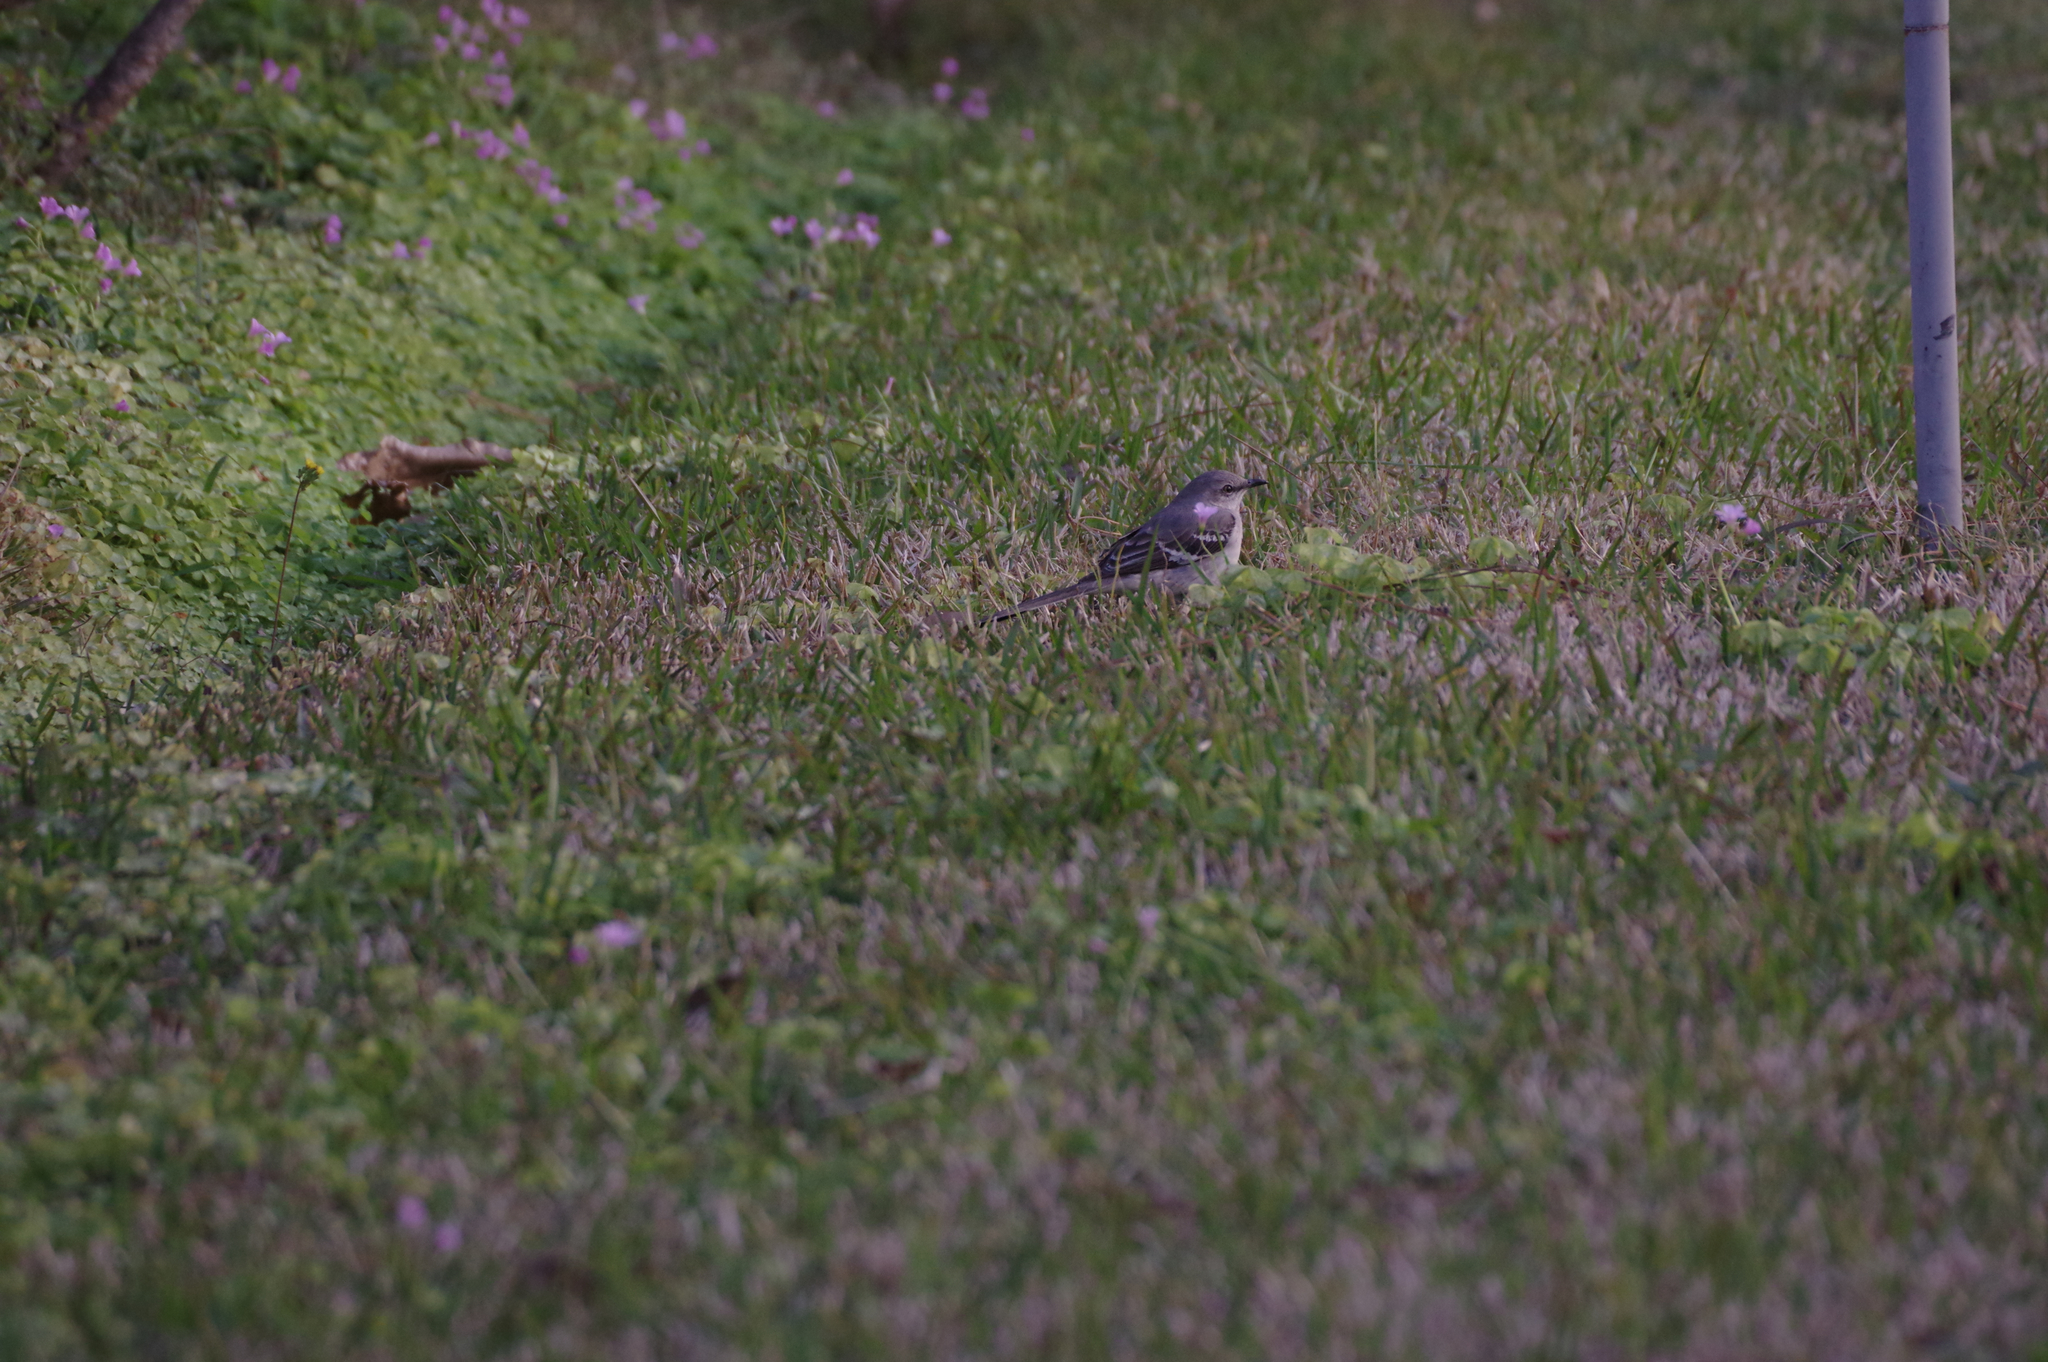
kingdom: Animalia
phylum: Chordata
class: Aves
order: Passeriformes
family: Mimidae
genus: Mimus
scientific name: Mimus polyglottos
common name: Northern mockingbird
